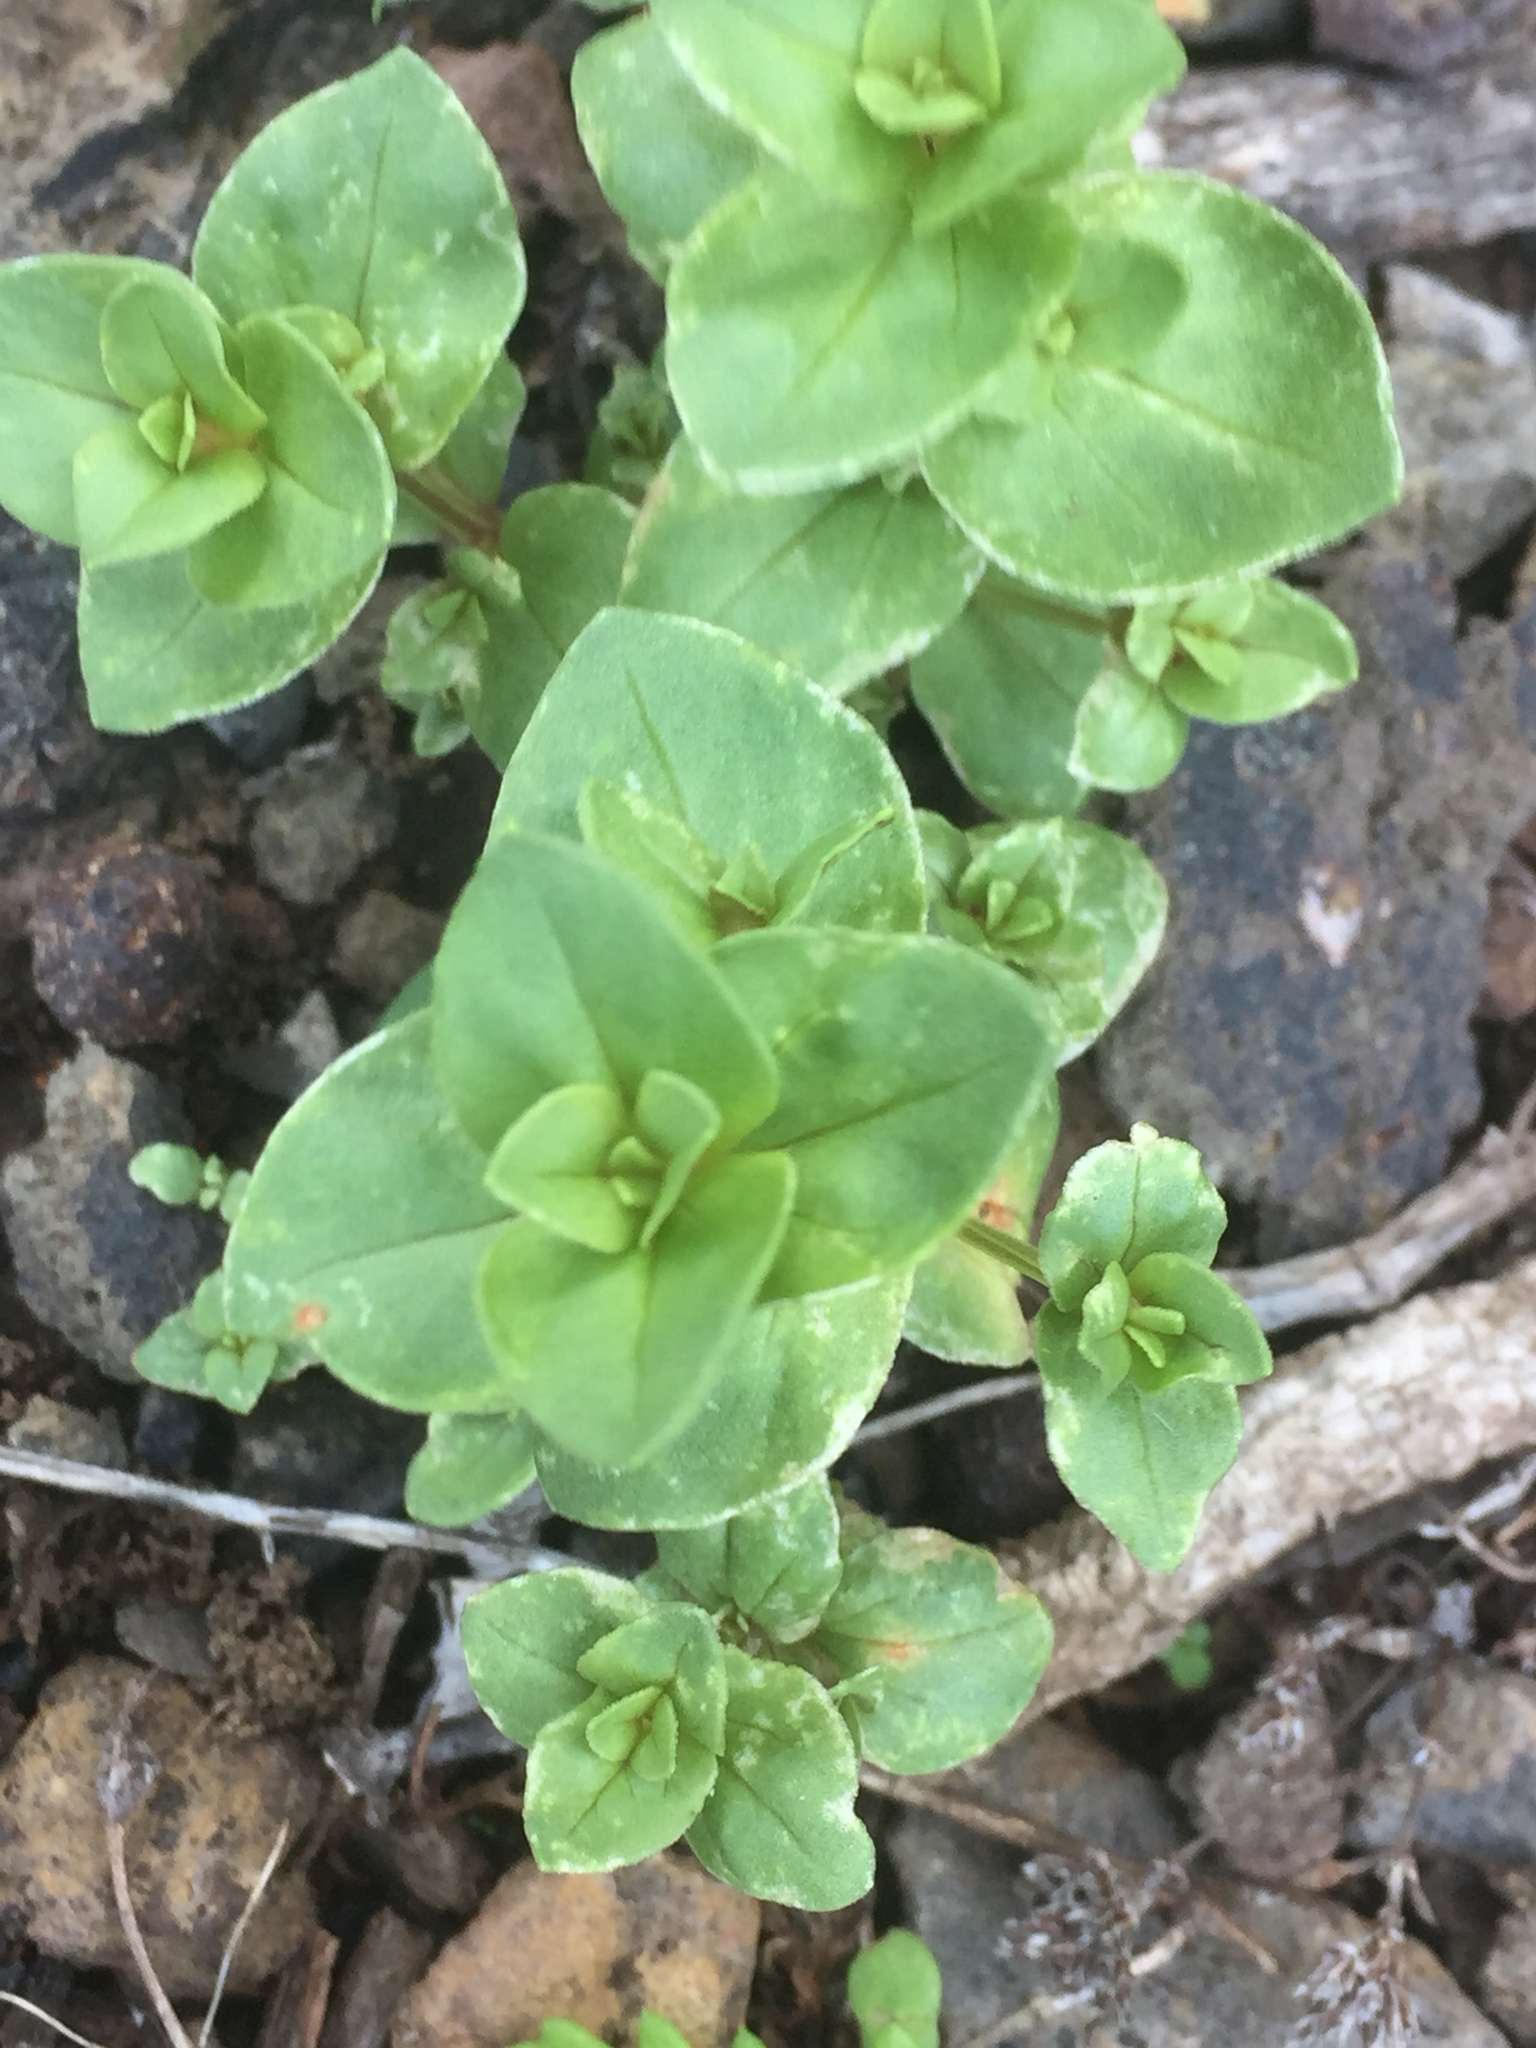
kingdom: Plantae
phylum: Tracheophyta
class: Magnoliopsida
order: Ericales
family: Primulaceae
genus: Lysimachia
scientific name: Lysimachia arvensis
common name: Scarlet pimpernel
